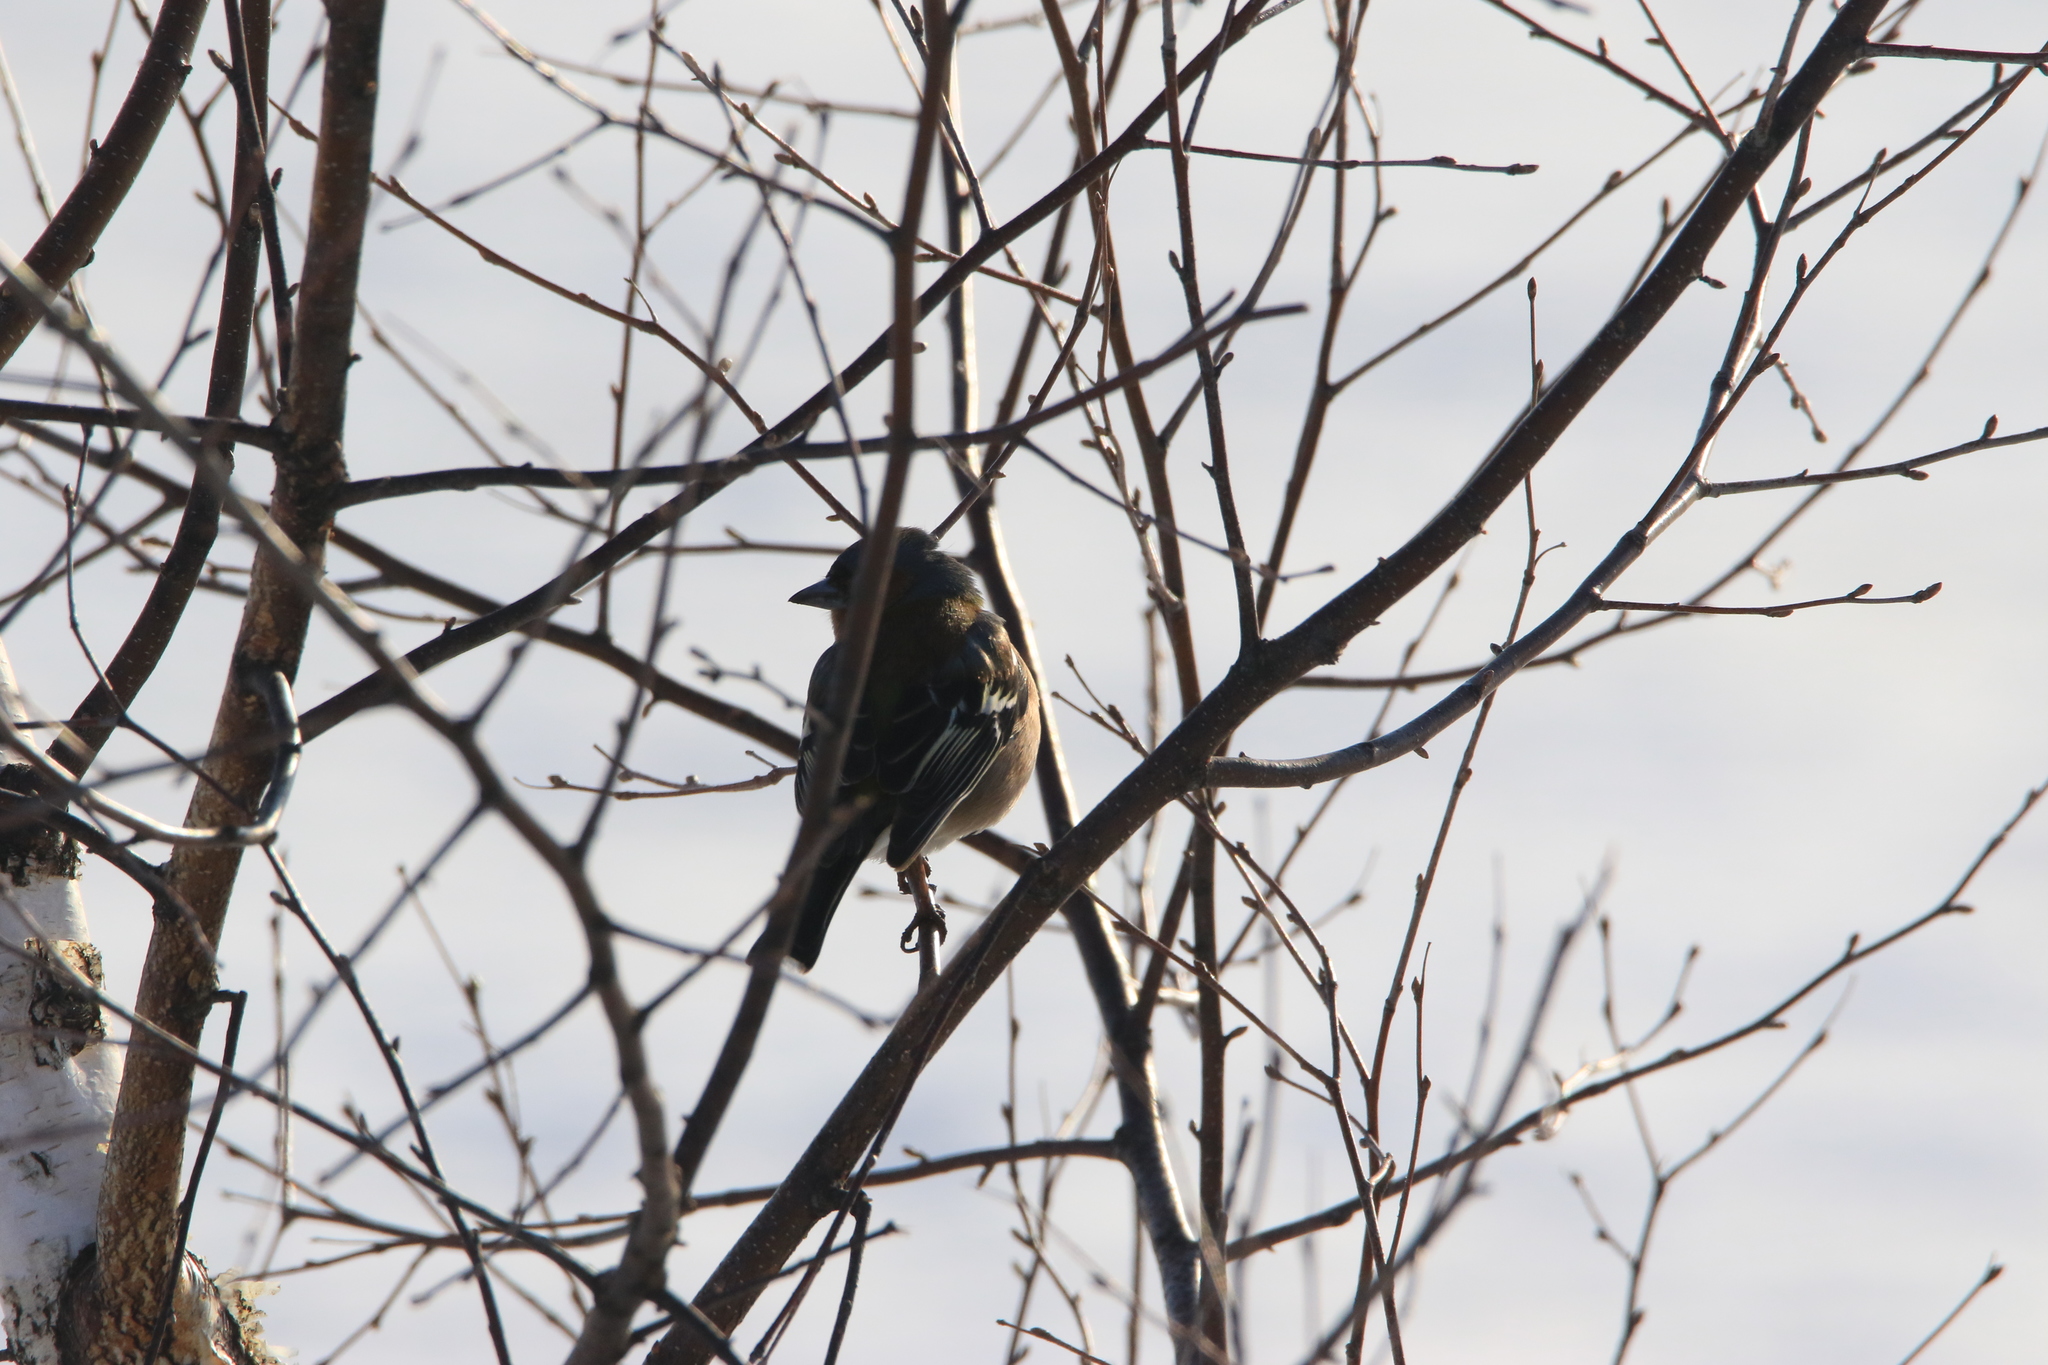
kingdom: Animalia
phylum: Chordata
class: Aves
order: Passeriformes
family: Fringillidae
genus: Fringilla
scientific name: Fringilla coelebs
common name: Common chaffinch
